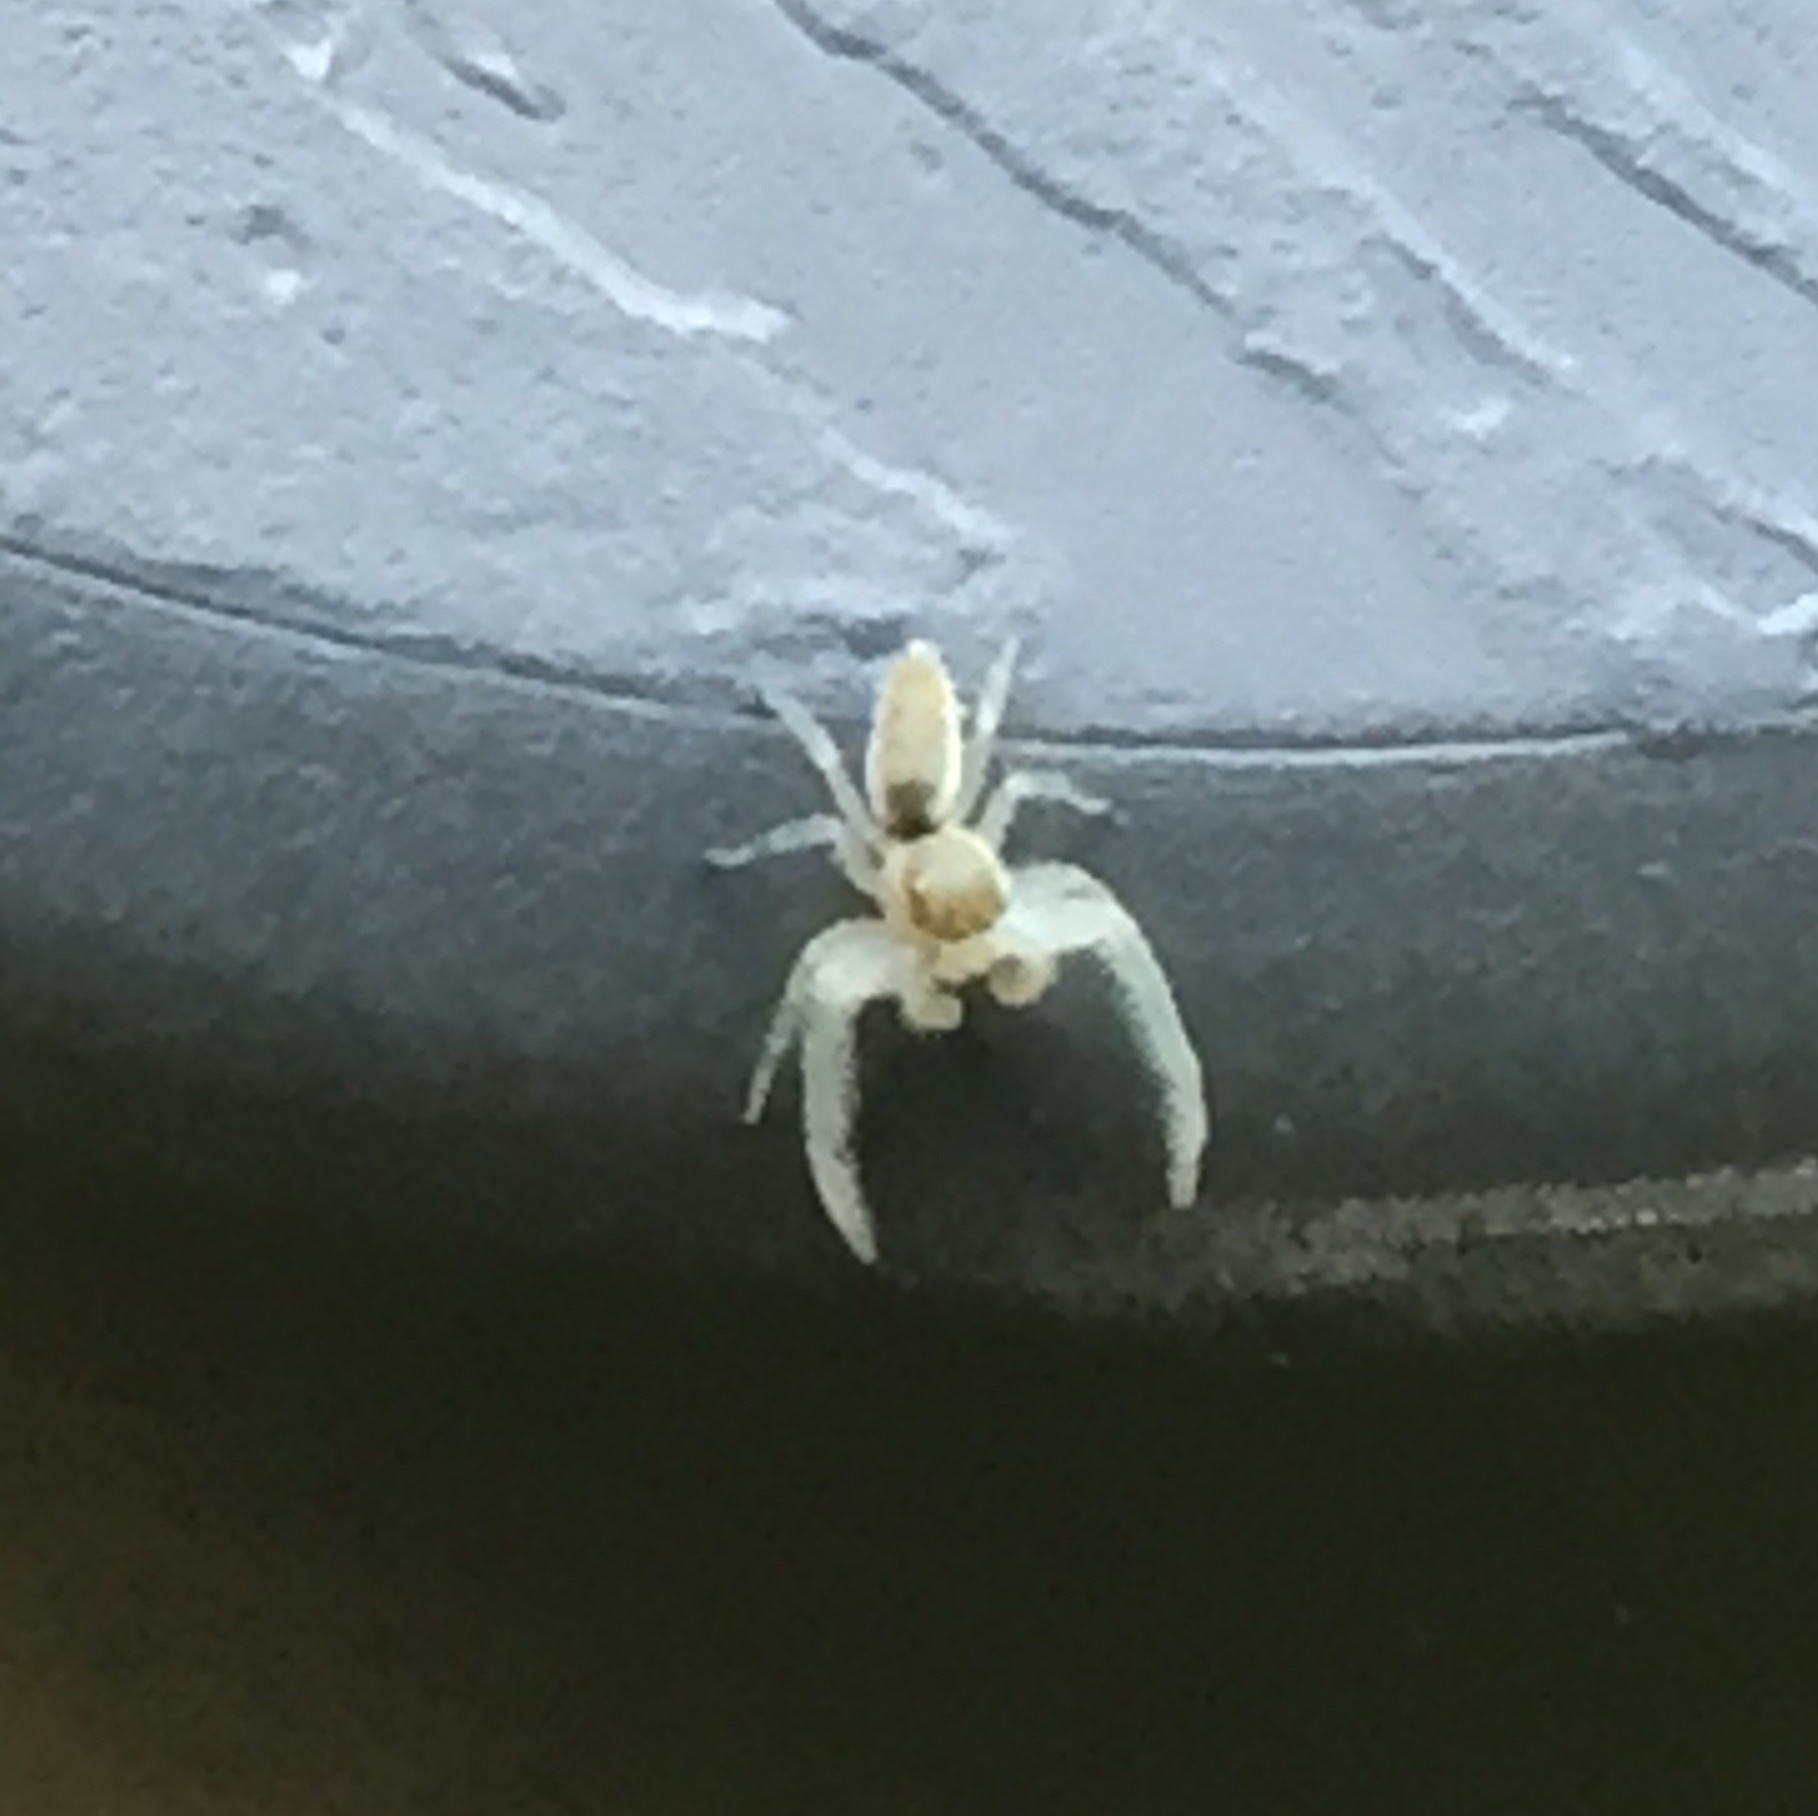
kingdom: Animalia
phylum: Arthropoda
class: Arachnida
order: Araneae
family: Salticidae
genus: Hentzia
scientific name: Hentzia mitrata
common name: White-jawed jumping spider
